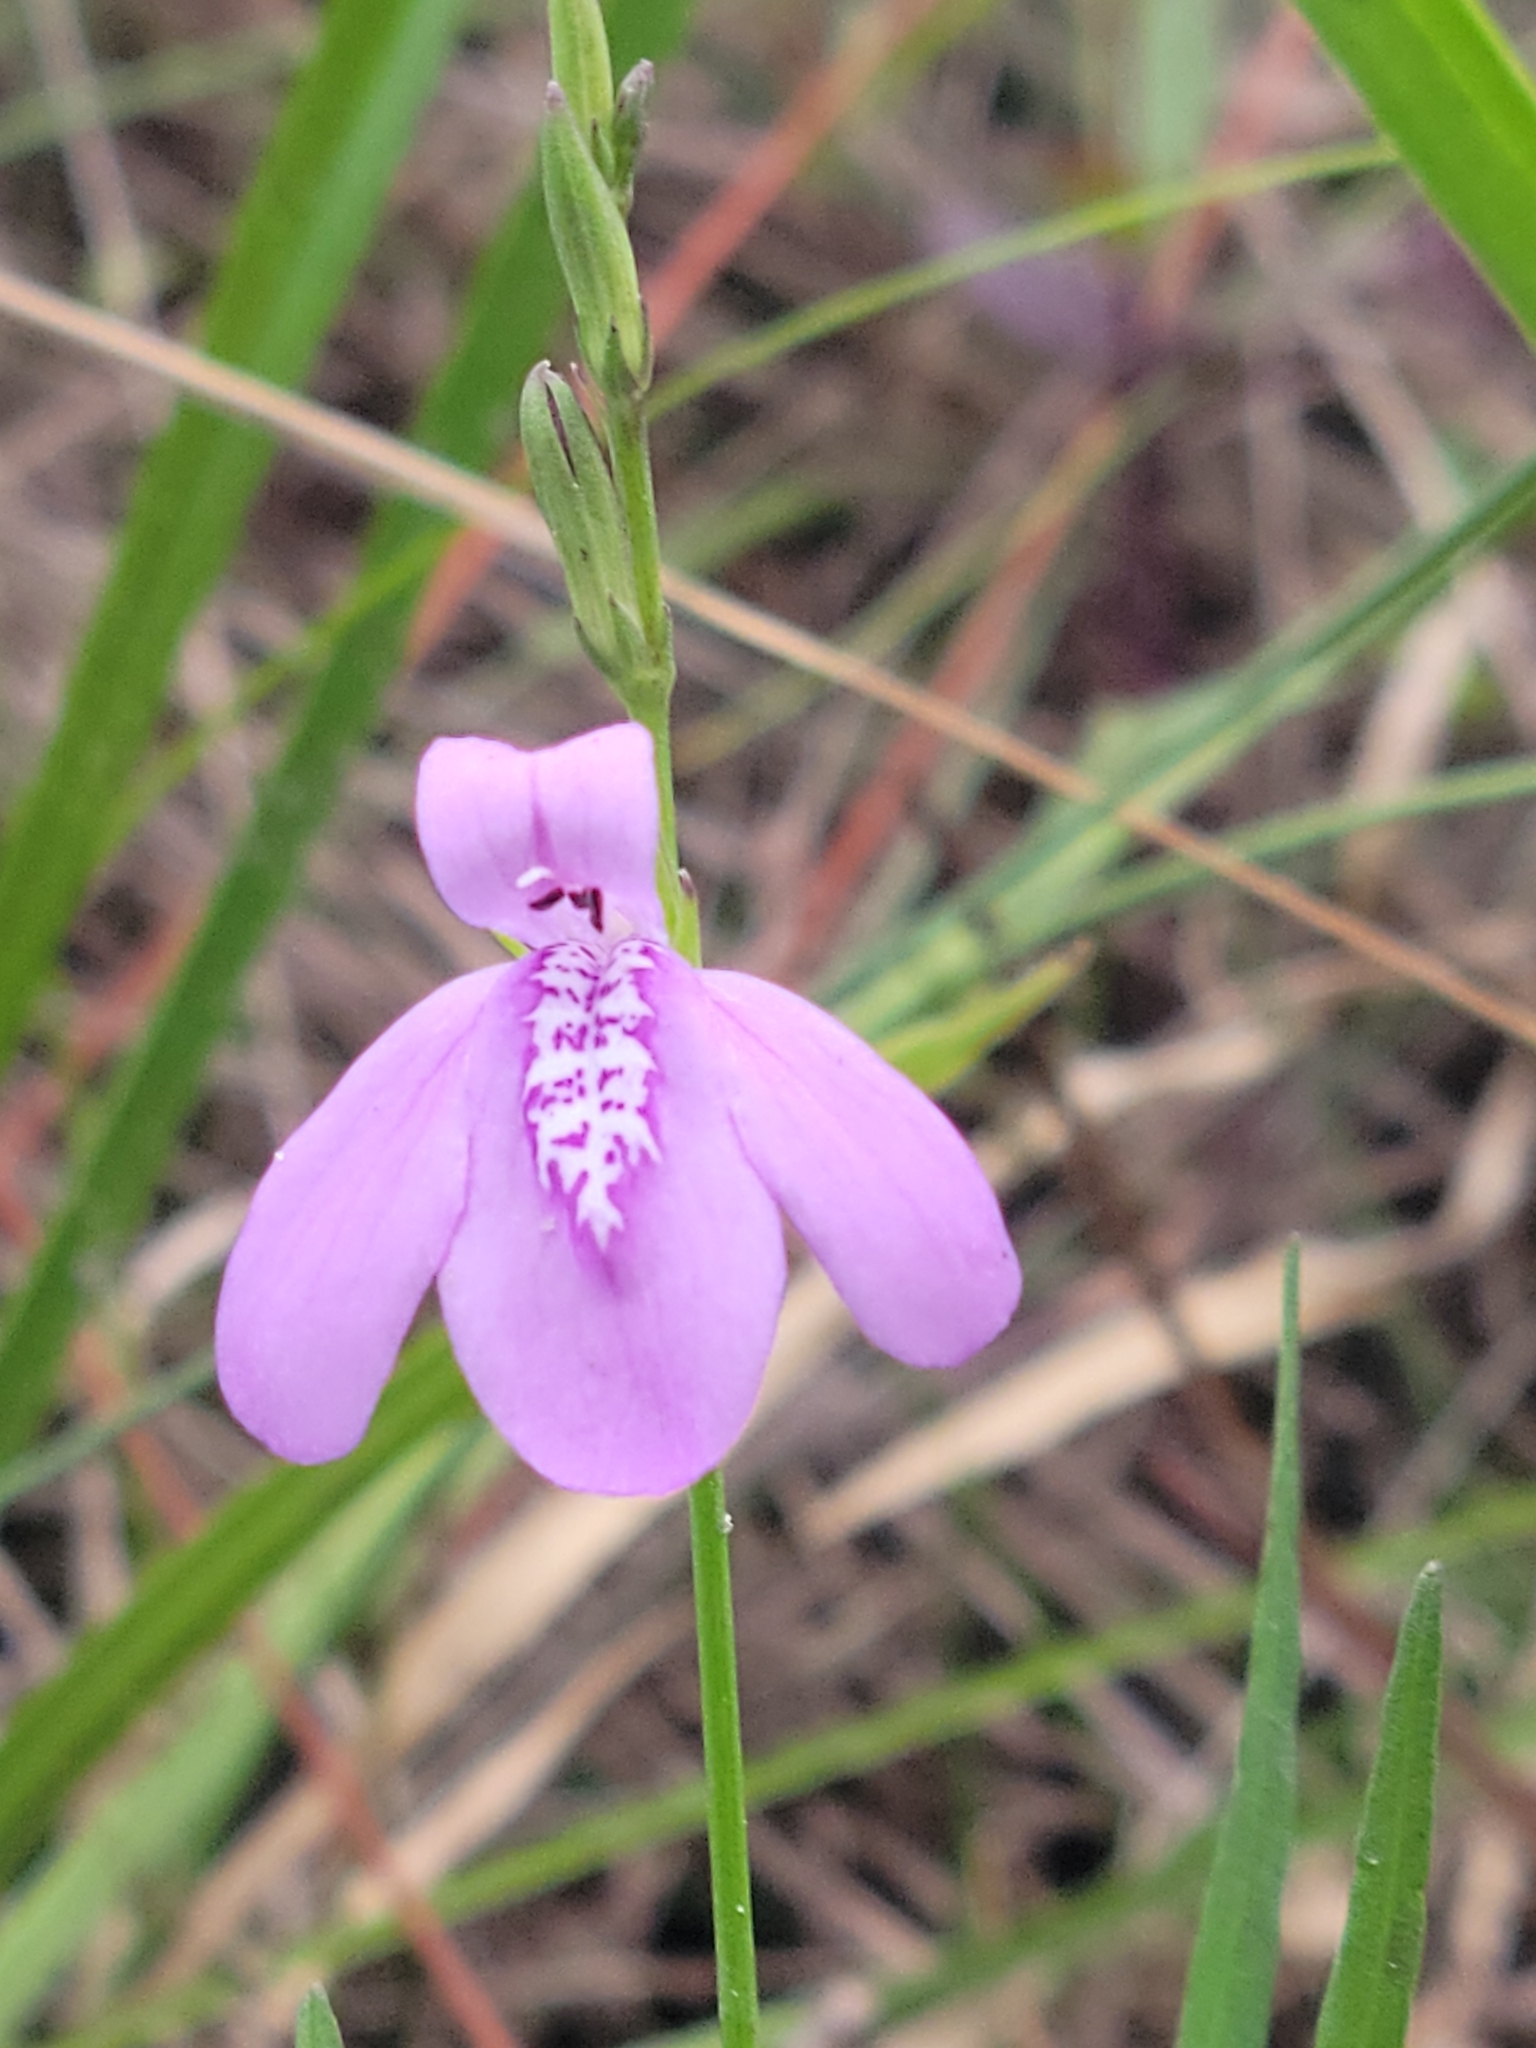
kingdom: Plantae
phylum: Tracheophyta
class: Magnoliopsida
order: Lamiales
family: Acanthaceae
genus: Dianthera
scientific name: Dianthera angusta
